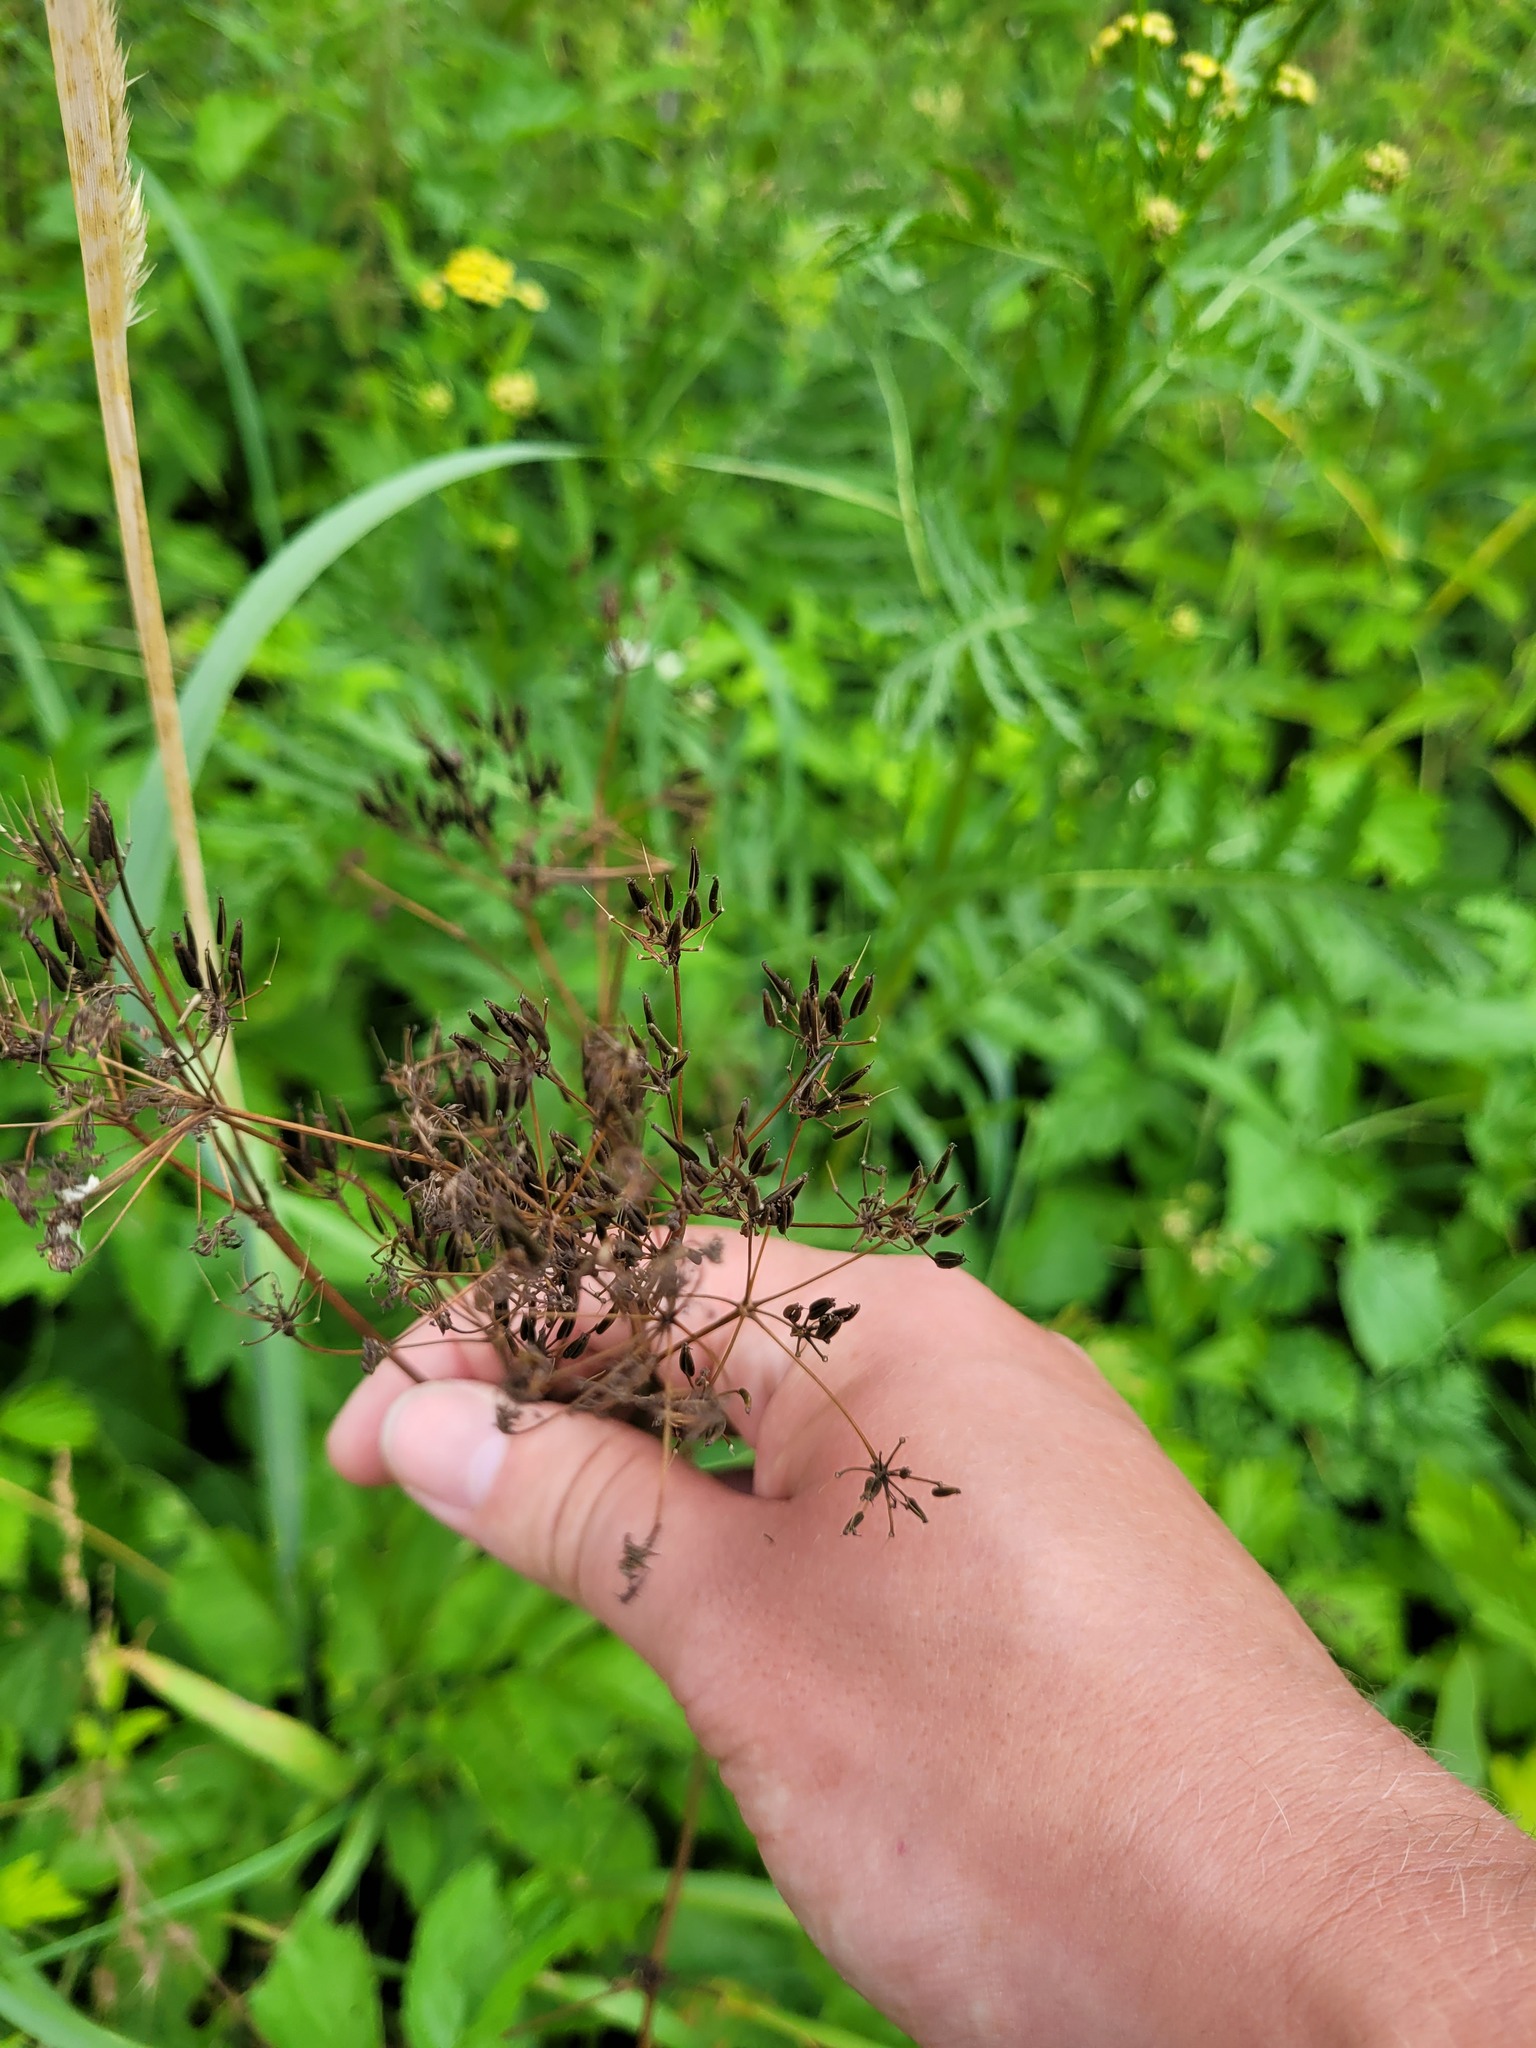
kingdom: Plantae
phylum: Tracheophyta
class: Magnoliopsida
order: Apiales
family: Apiaceae
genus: Anthriscus
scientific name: Anthriscus sylvestris
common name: Cow parsley
